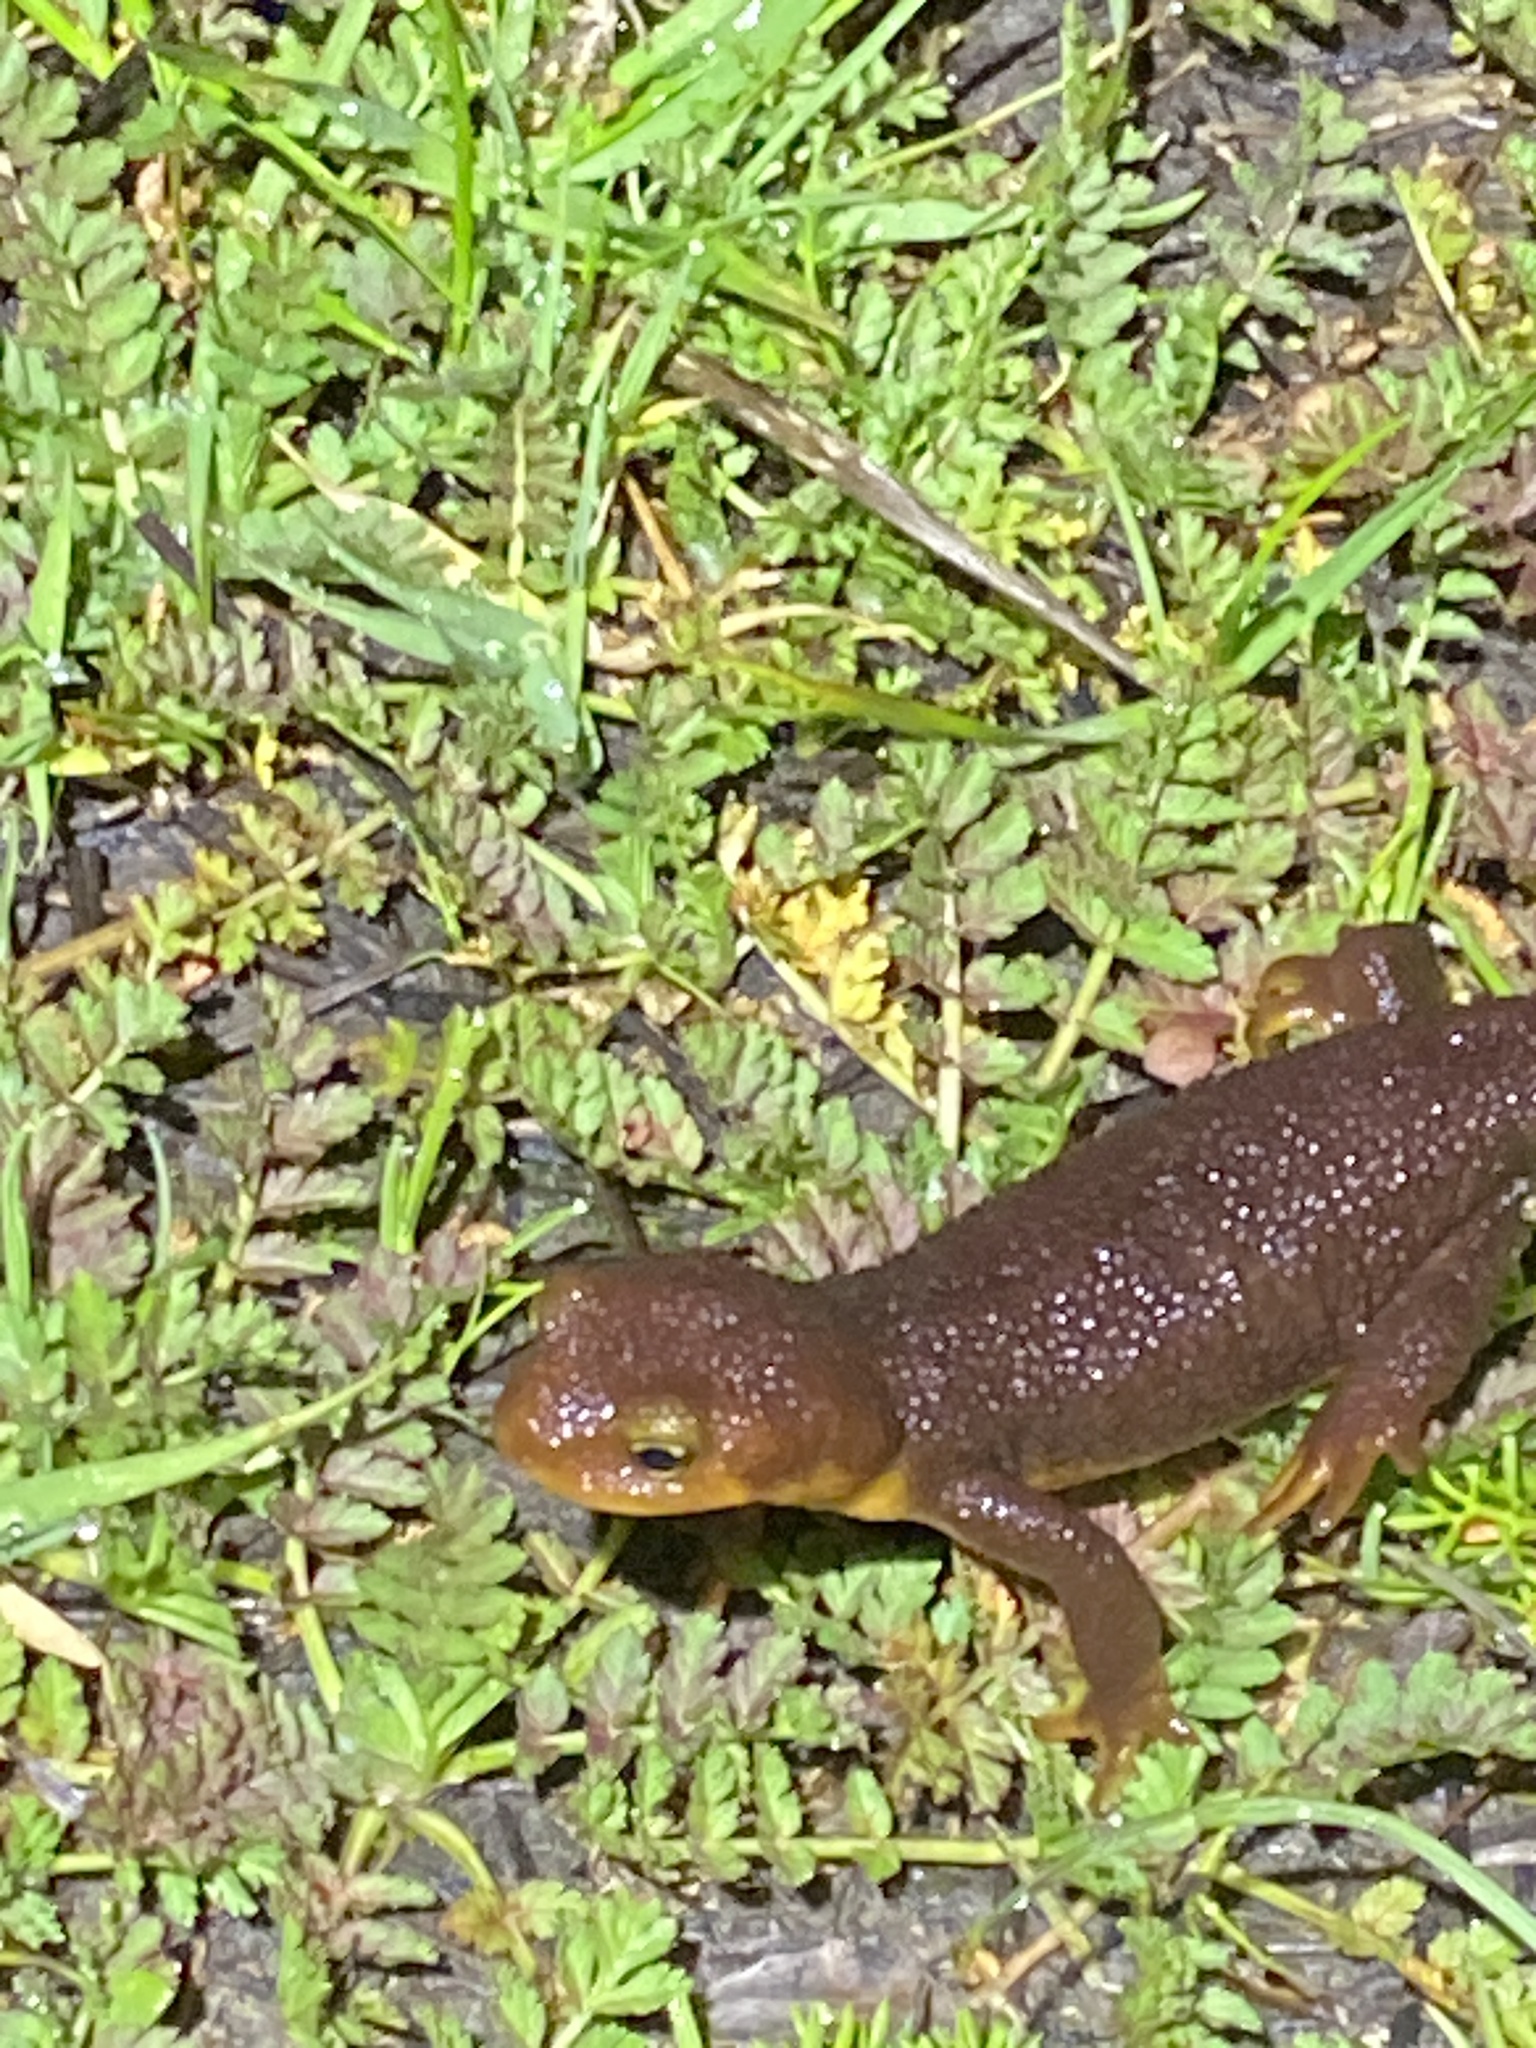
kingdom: Animalia
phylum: Chordata
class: Amphibia
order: Caudata
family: Salamandridae
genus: Taricha
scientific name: Taricha torosa
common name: California newt
